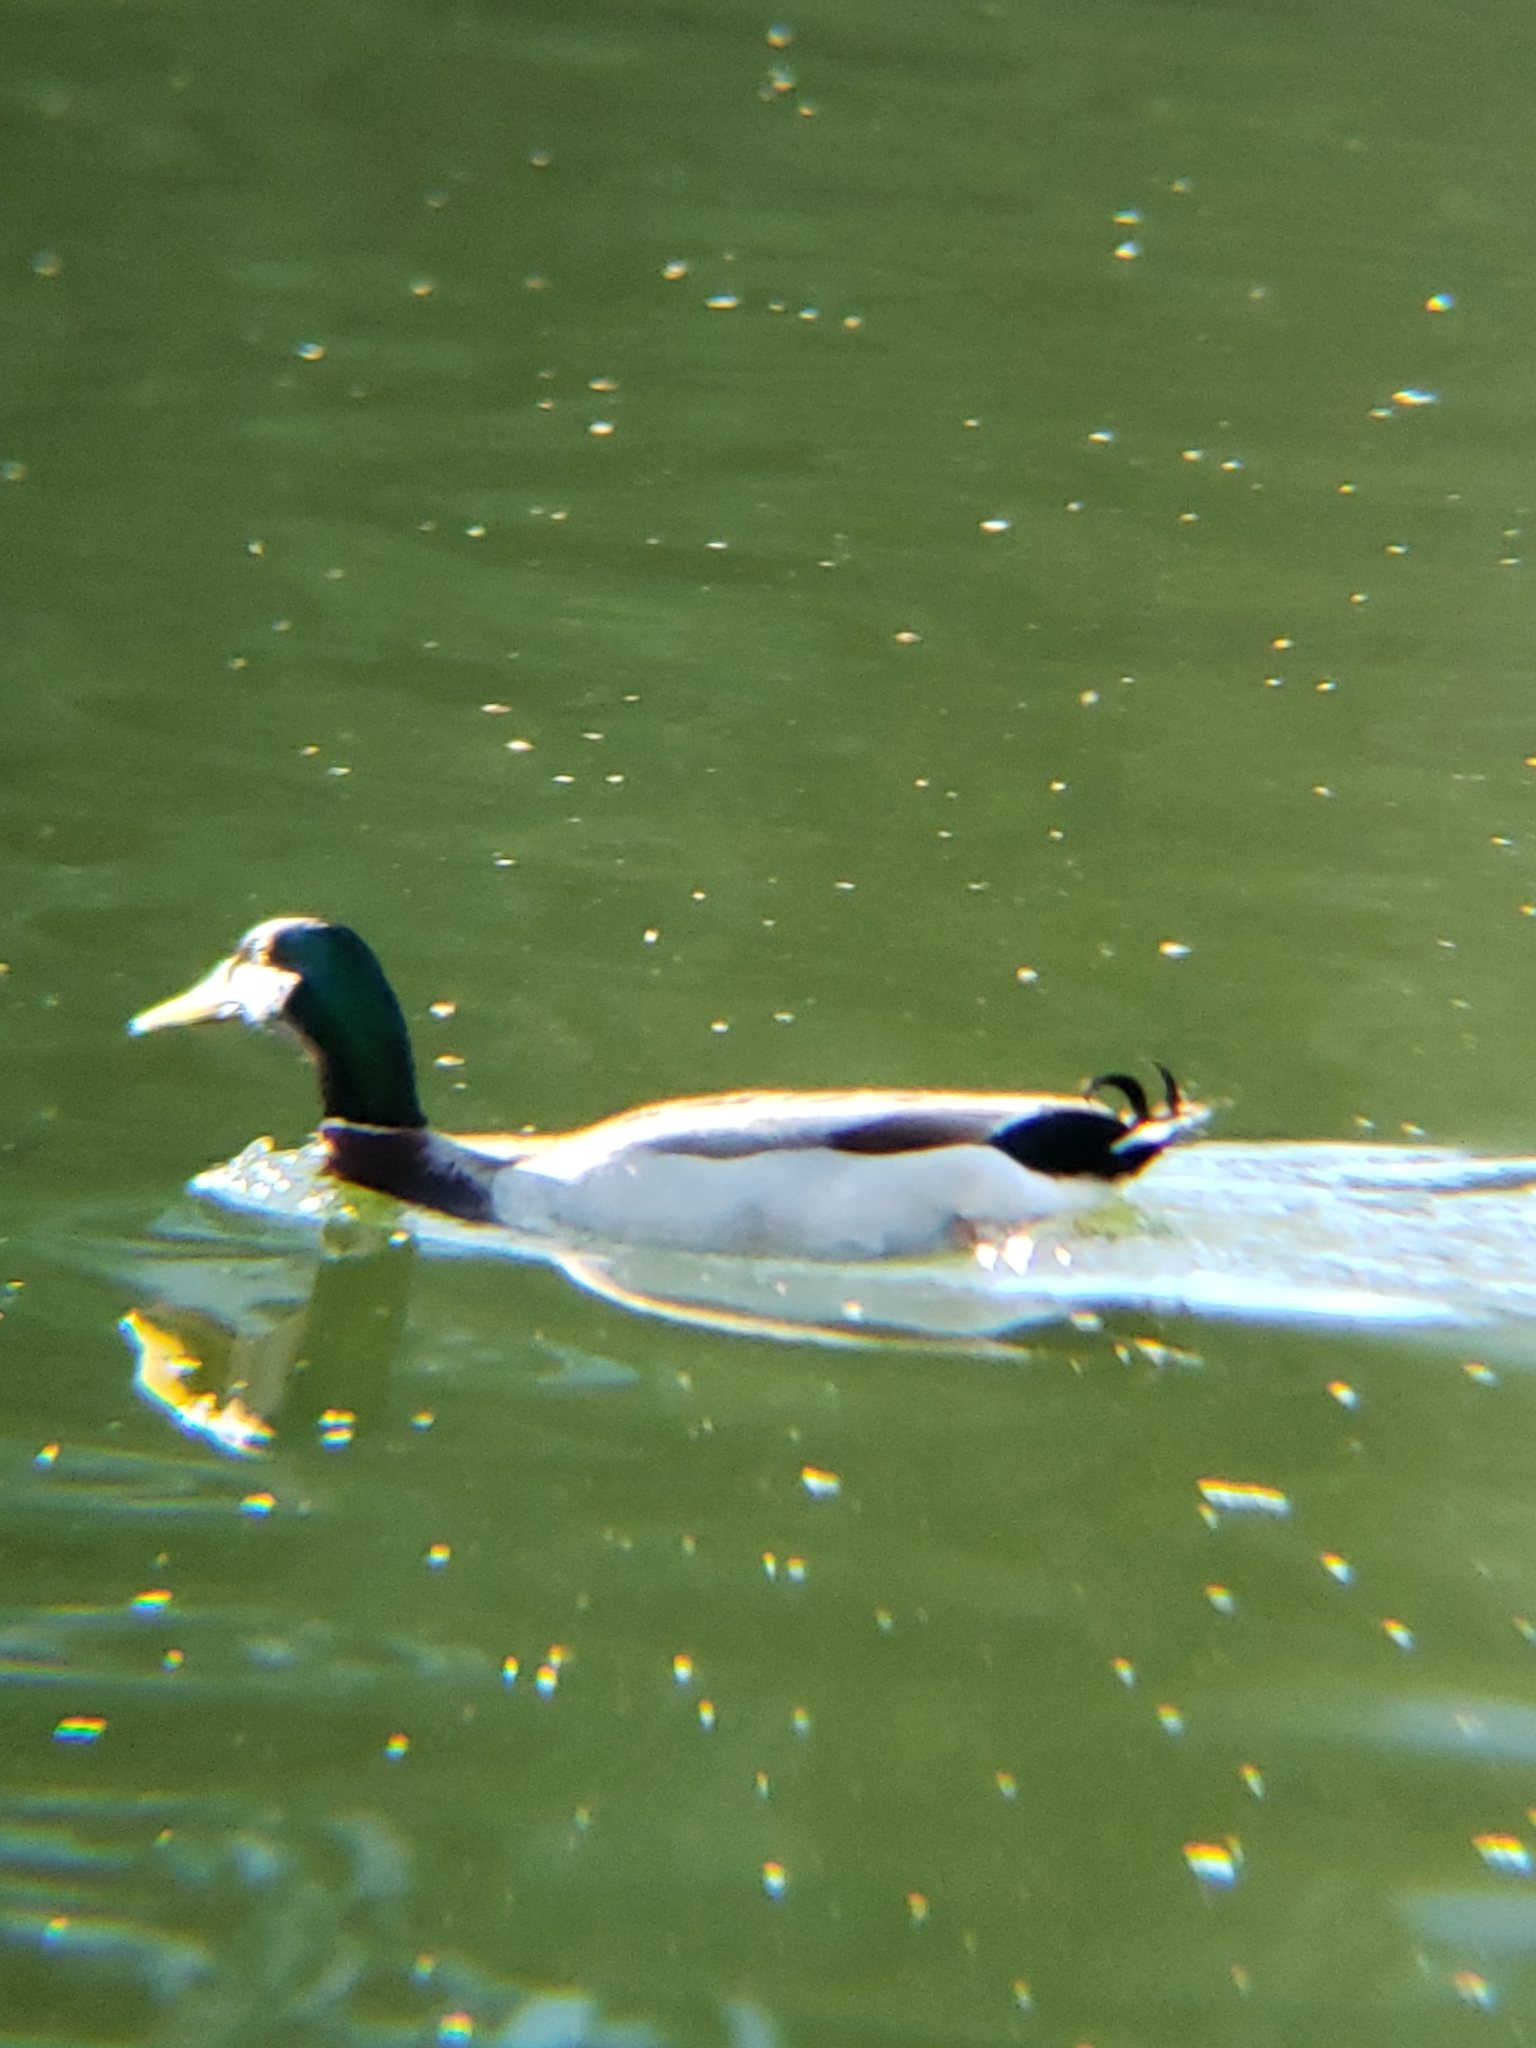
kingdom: Animalia
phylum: Chordata
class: Aves
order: Anseriformes
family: Anatidae
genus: Anas
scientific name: Anas platyrhynchos
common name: Mallard
